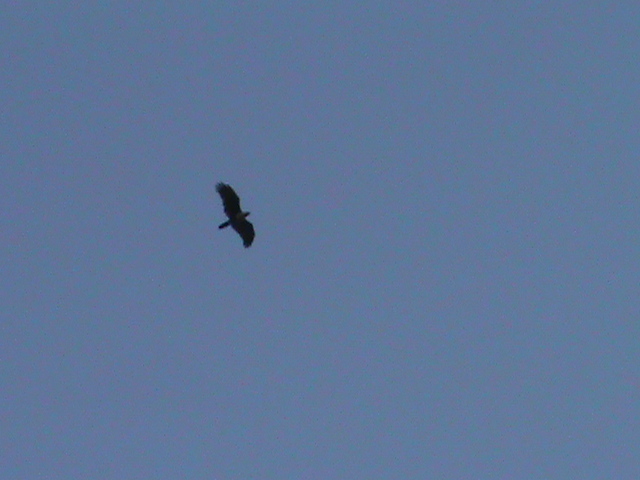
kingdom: Animalia
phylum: Chordata
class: Aves
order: Accipitriformes
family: Accipitridae
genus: Haliastur
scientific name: Haliastur indus
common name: Brahminy kite
